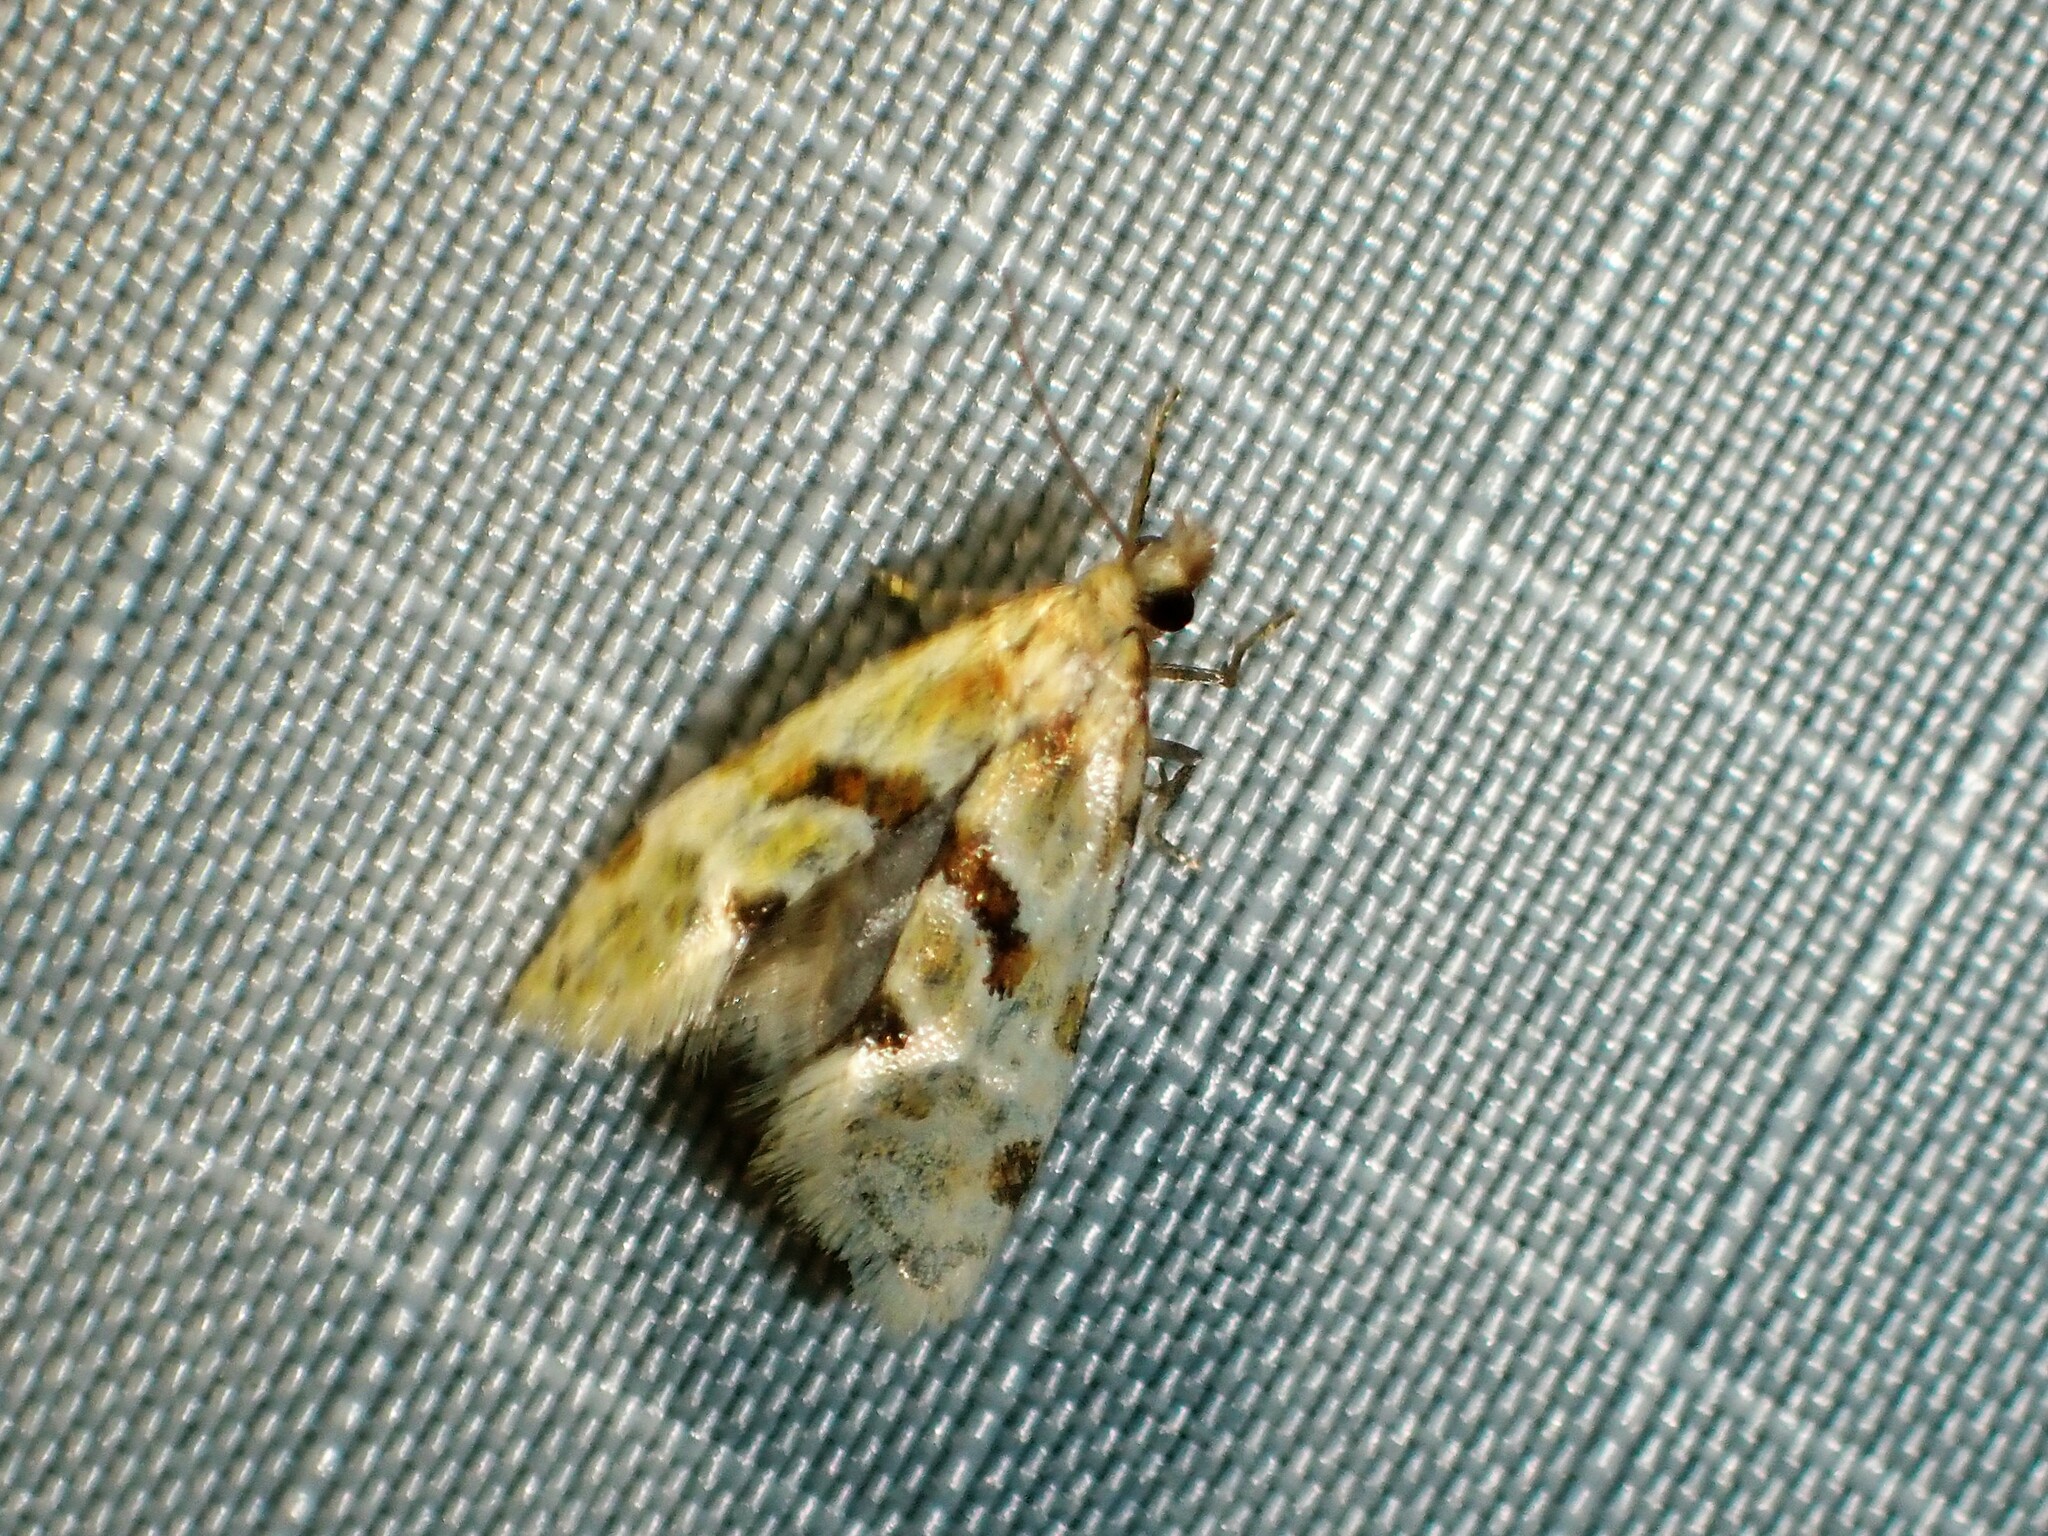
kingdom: Animalia
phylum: Arthropoda
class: Insecta
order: Lepidoptera
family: Tortricidae
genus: Aethes
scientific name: Aethes smeathmanniana
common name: Yarrow conch
